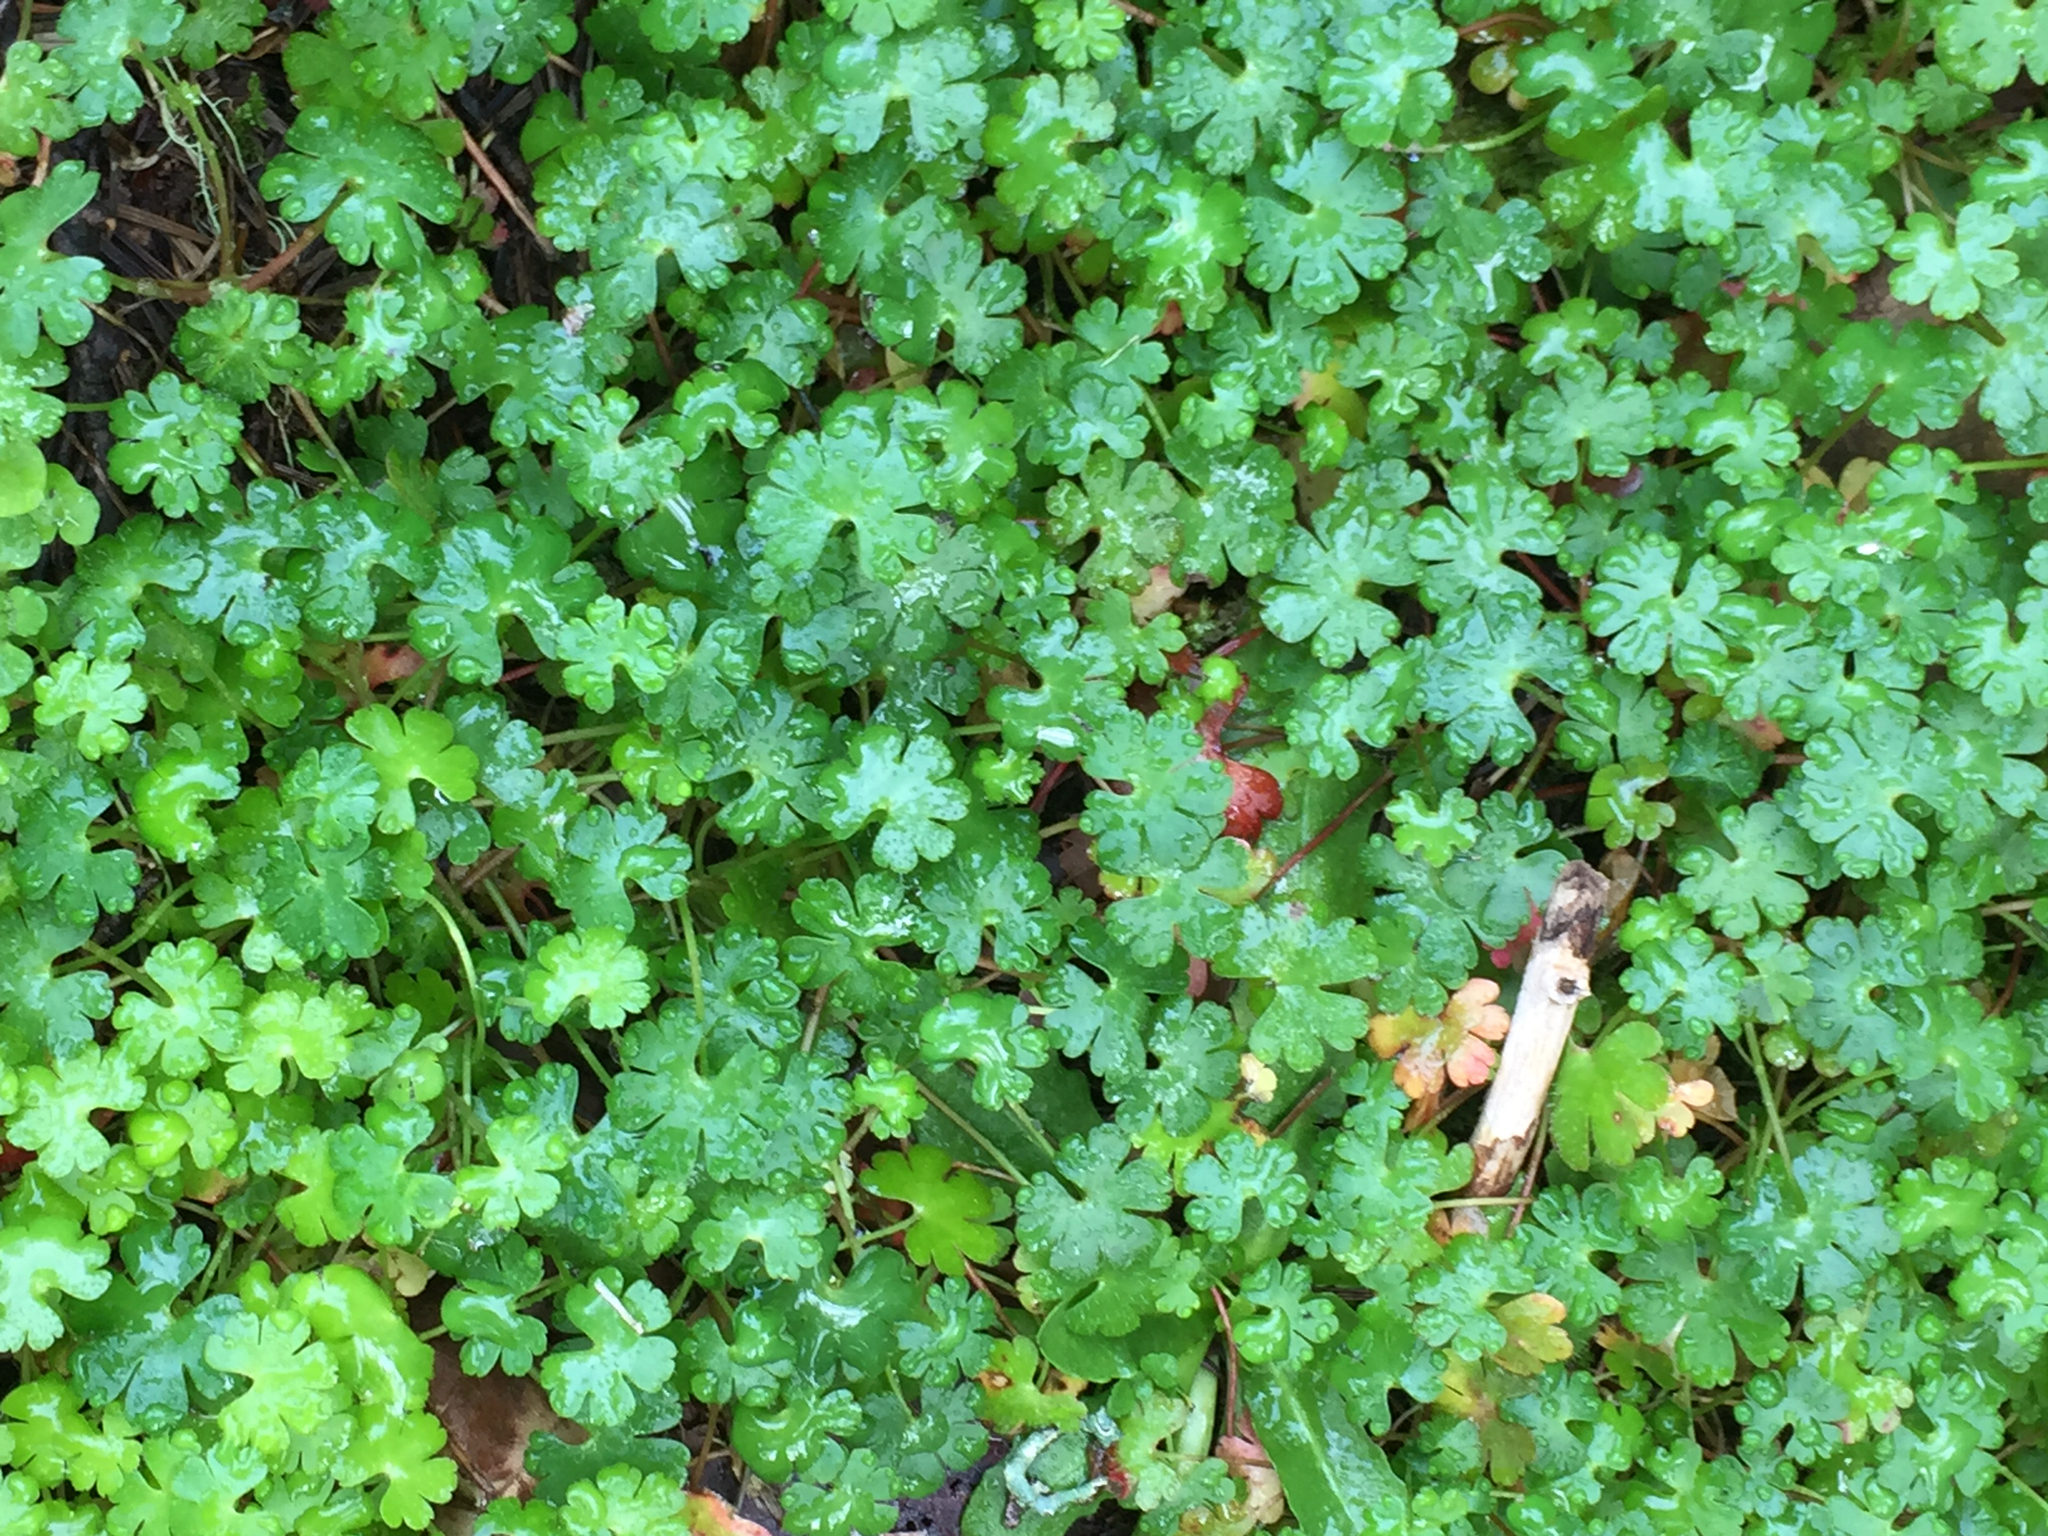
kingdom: Plantae
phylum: Tracheophyta
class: Magnoliopsida
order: Geraniales
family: Geraniaceae
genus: Geranium
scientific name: Geranium lucidum
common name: Shining crane's-bill
